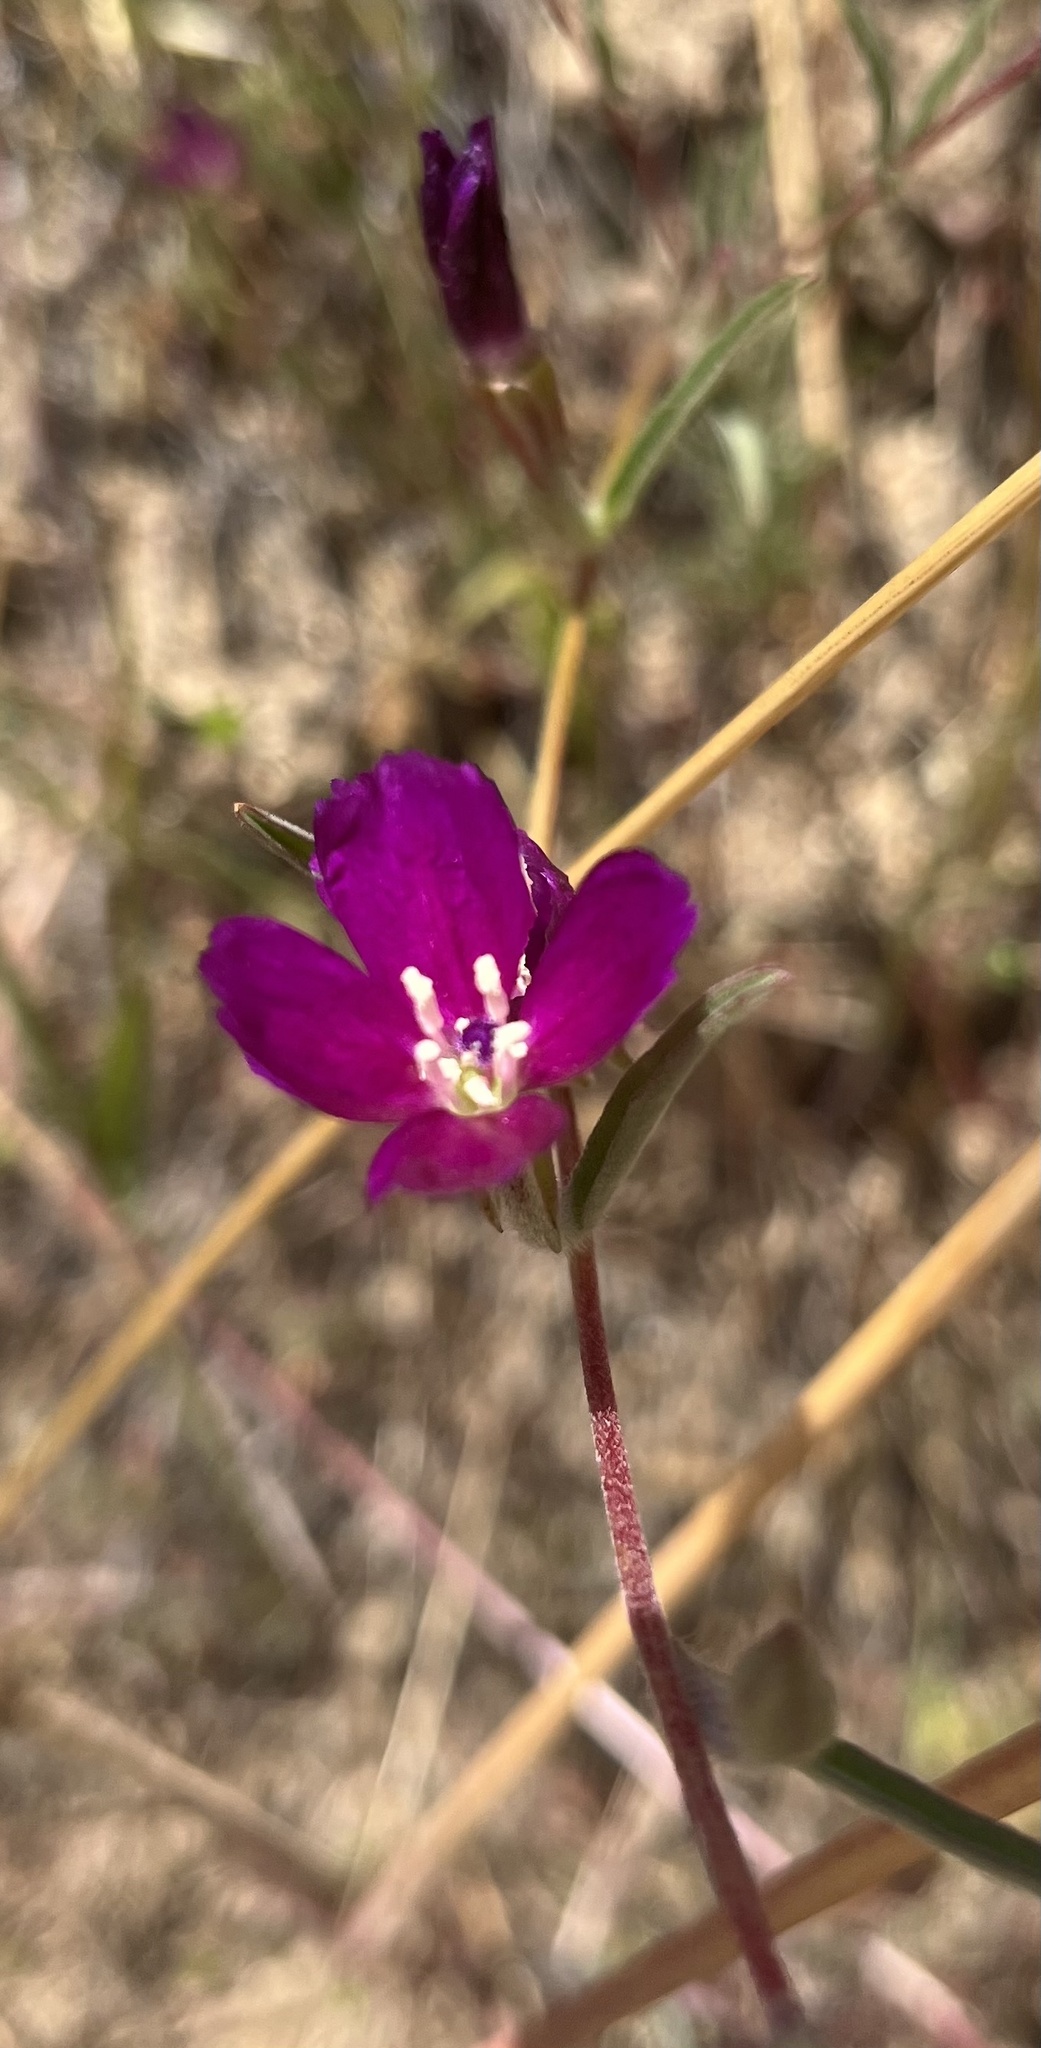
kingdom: Plantae
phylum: Tracheophyta
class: Magnoliopsida
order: Myrtales
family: Onagraceae
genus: Clarkia
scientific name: Clarkia purpurea
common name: Purple clarkia
